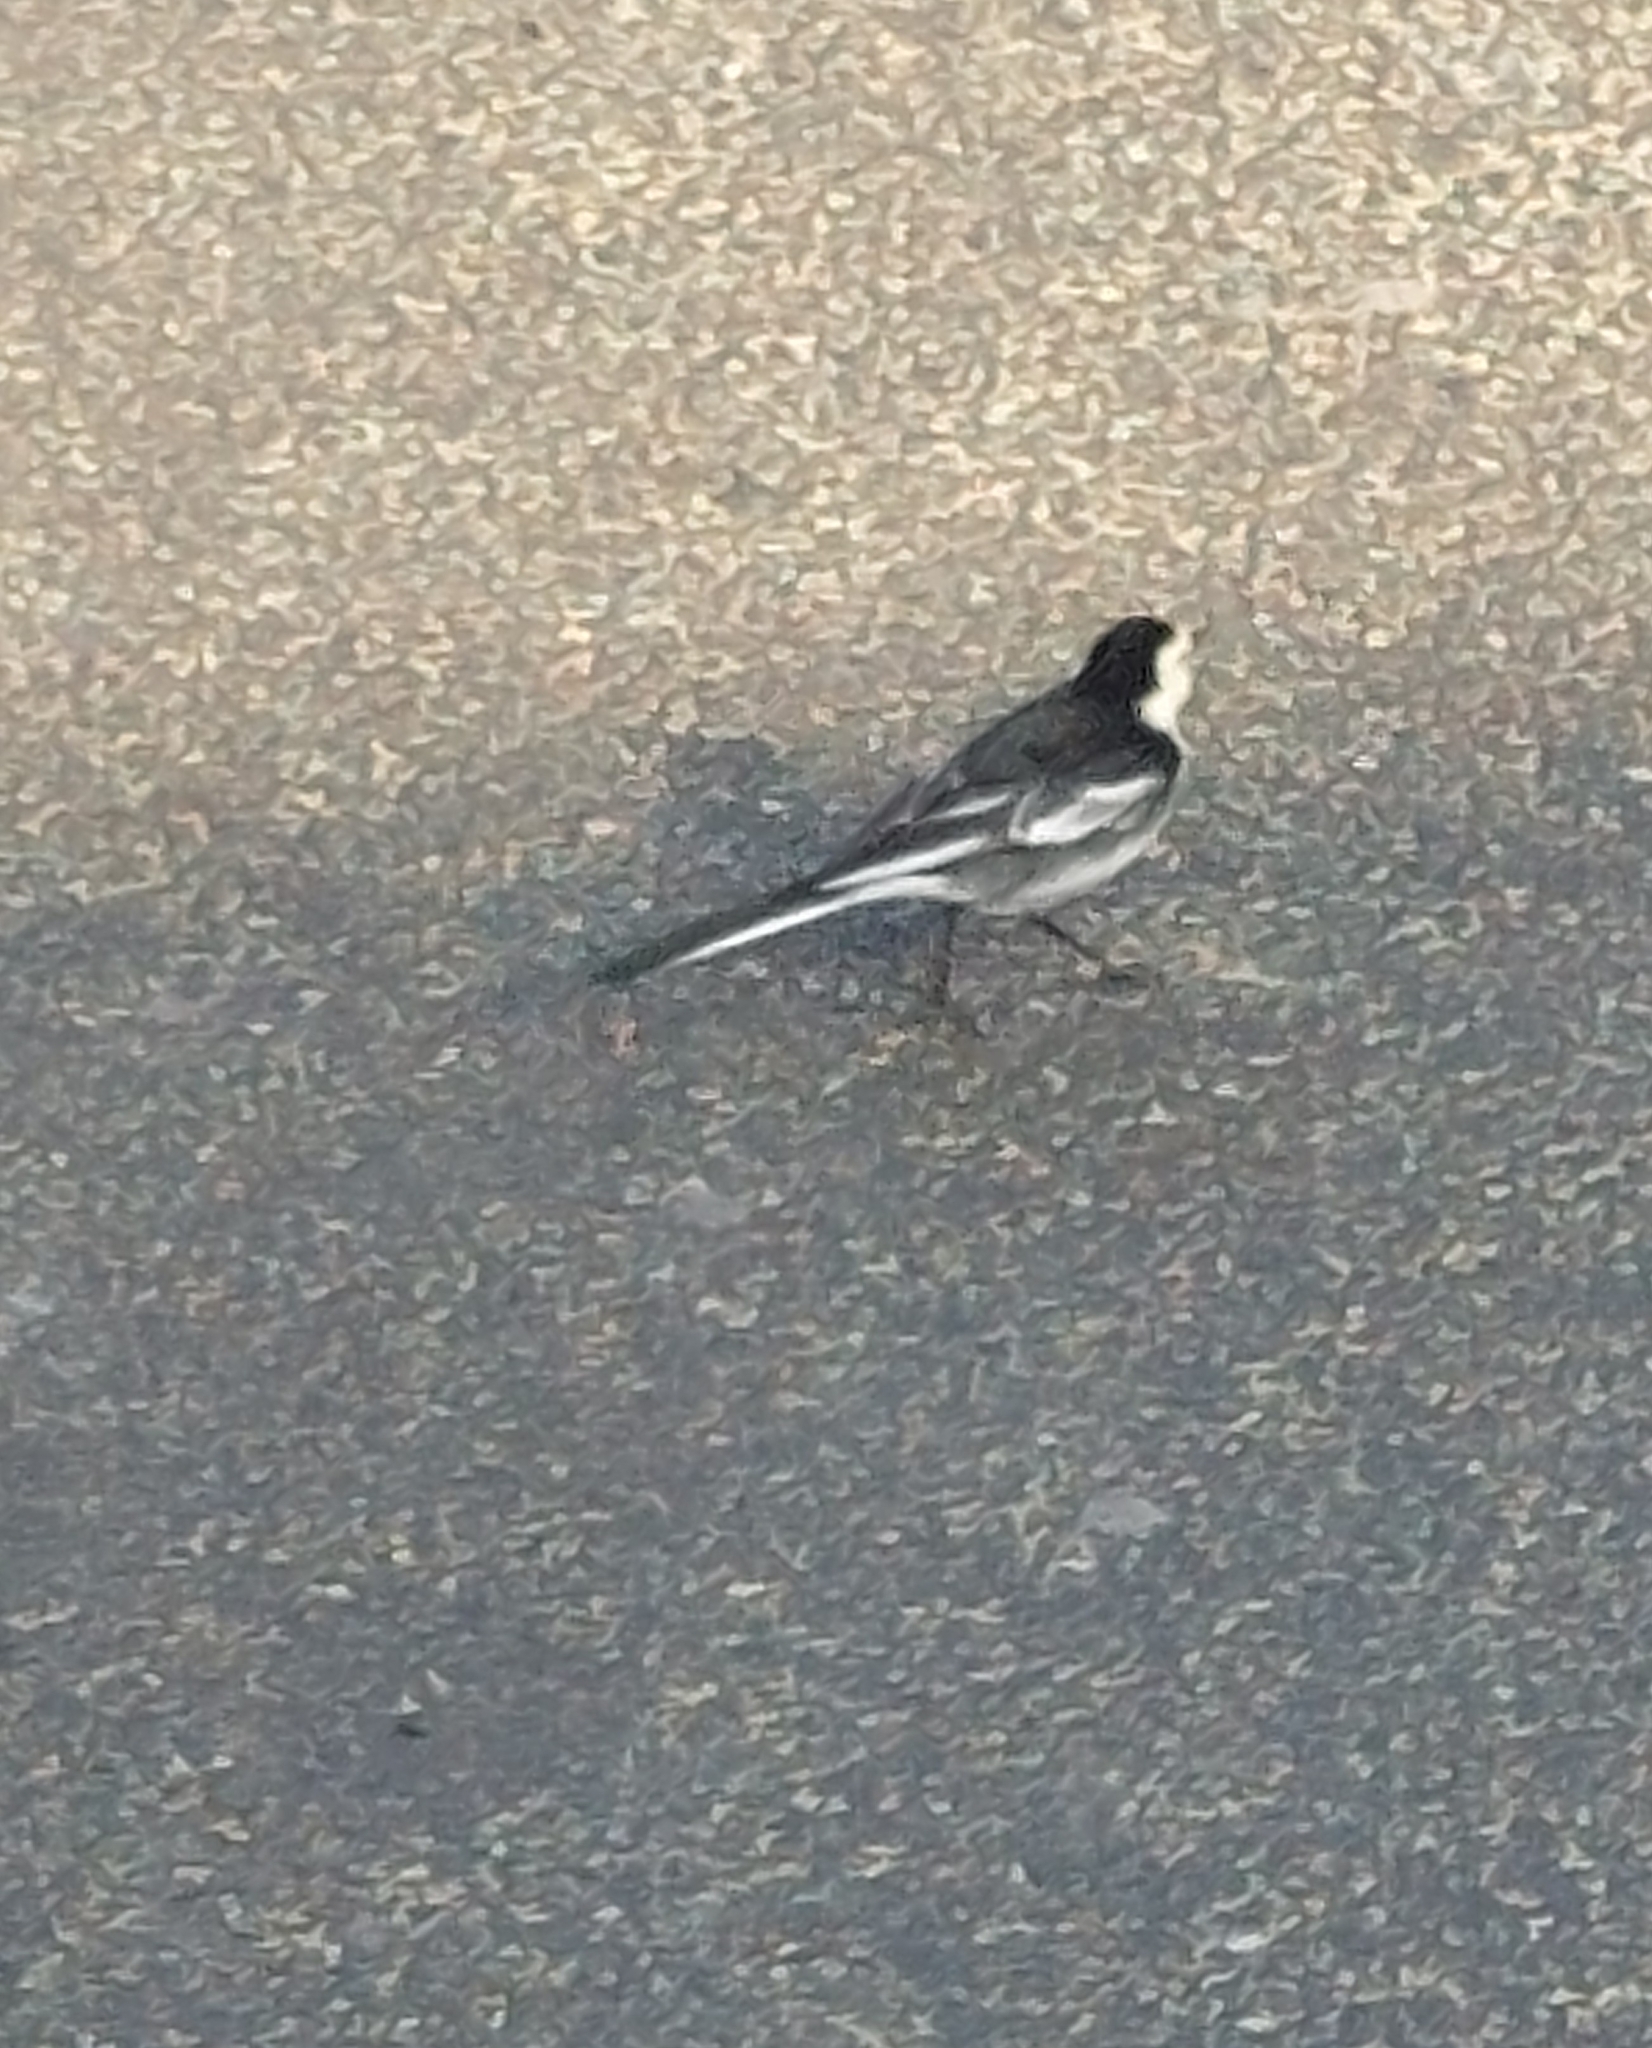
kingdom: Animalia
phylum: Chordata
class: Aves
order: Passeriformes
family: Motacillidae
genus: Motacilla
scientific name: Motacilla alba
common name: White wagtail
